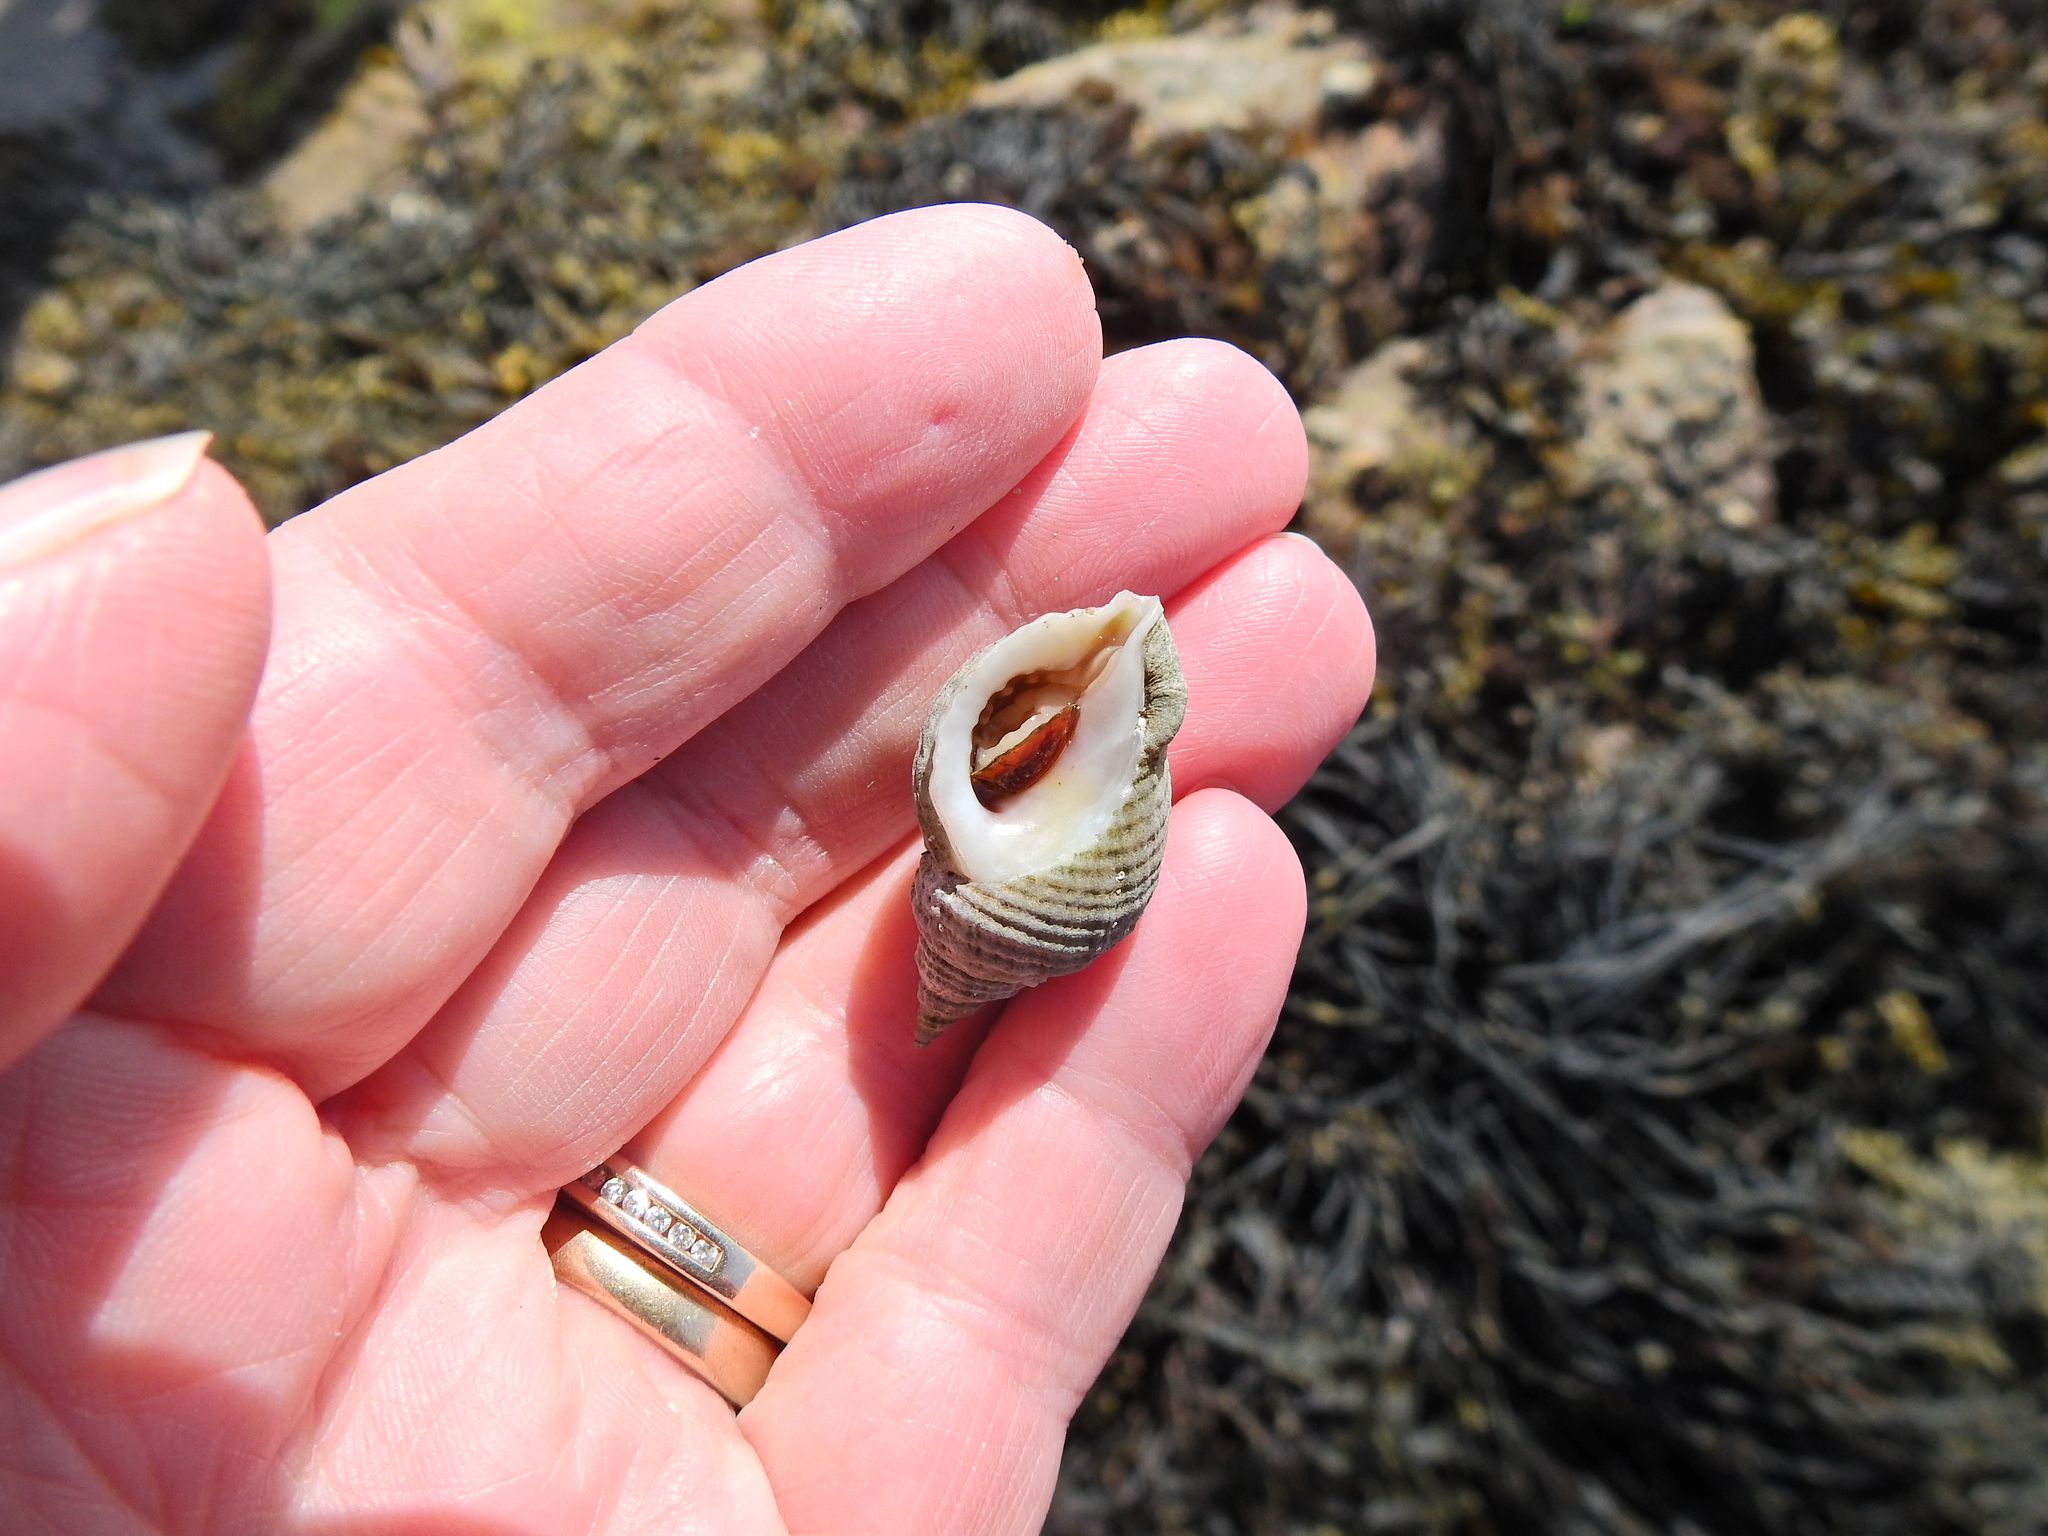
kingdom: Animalia
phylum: Mollusca
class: Gastropoda
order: Neogastropoda
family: Muricidae
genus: Nucella
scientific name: Nucella lapillus
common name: Dog whelk
